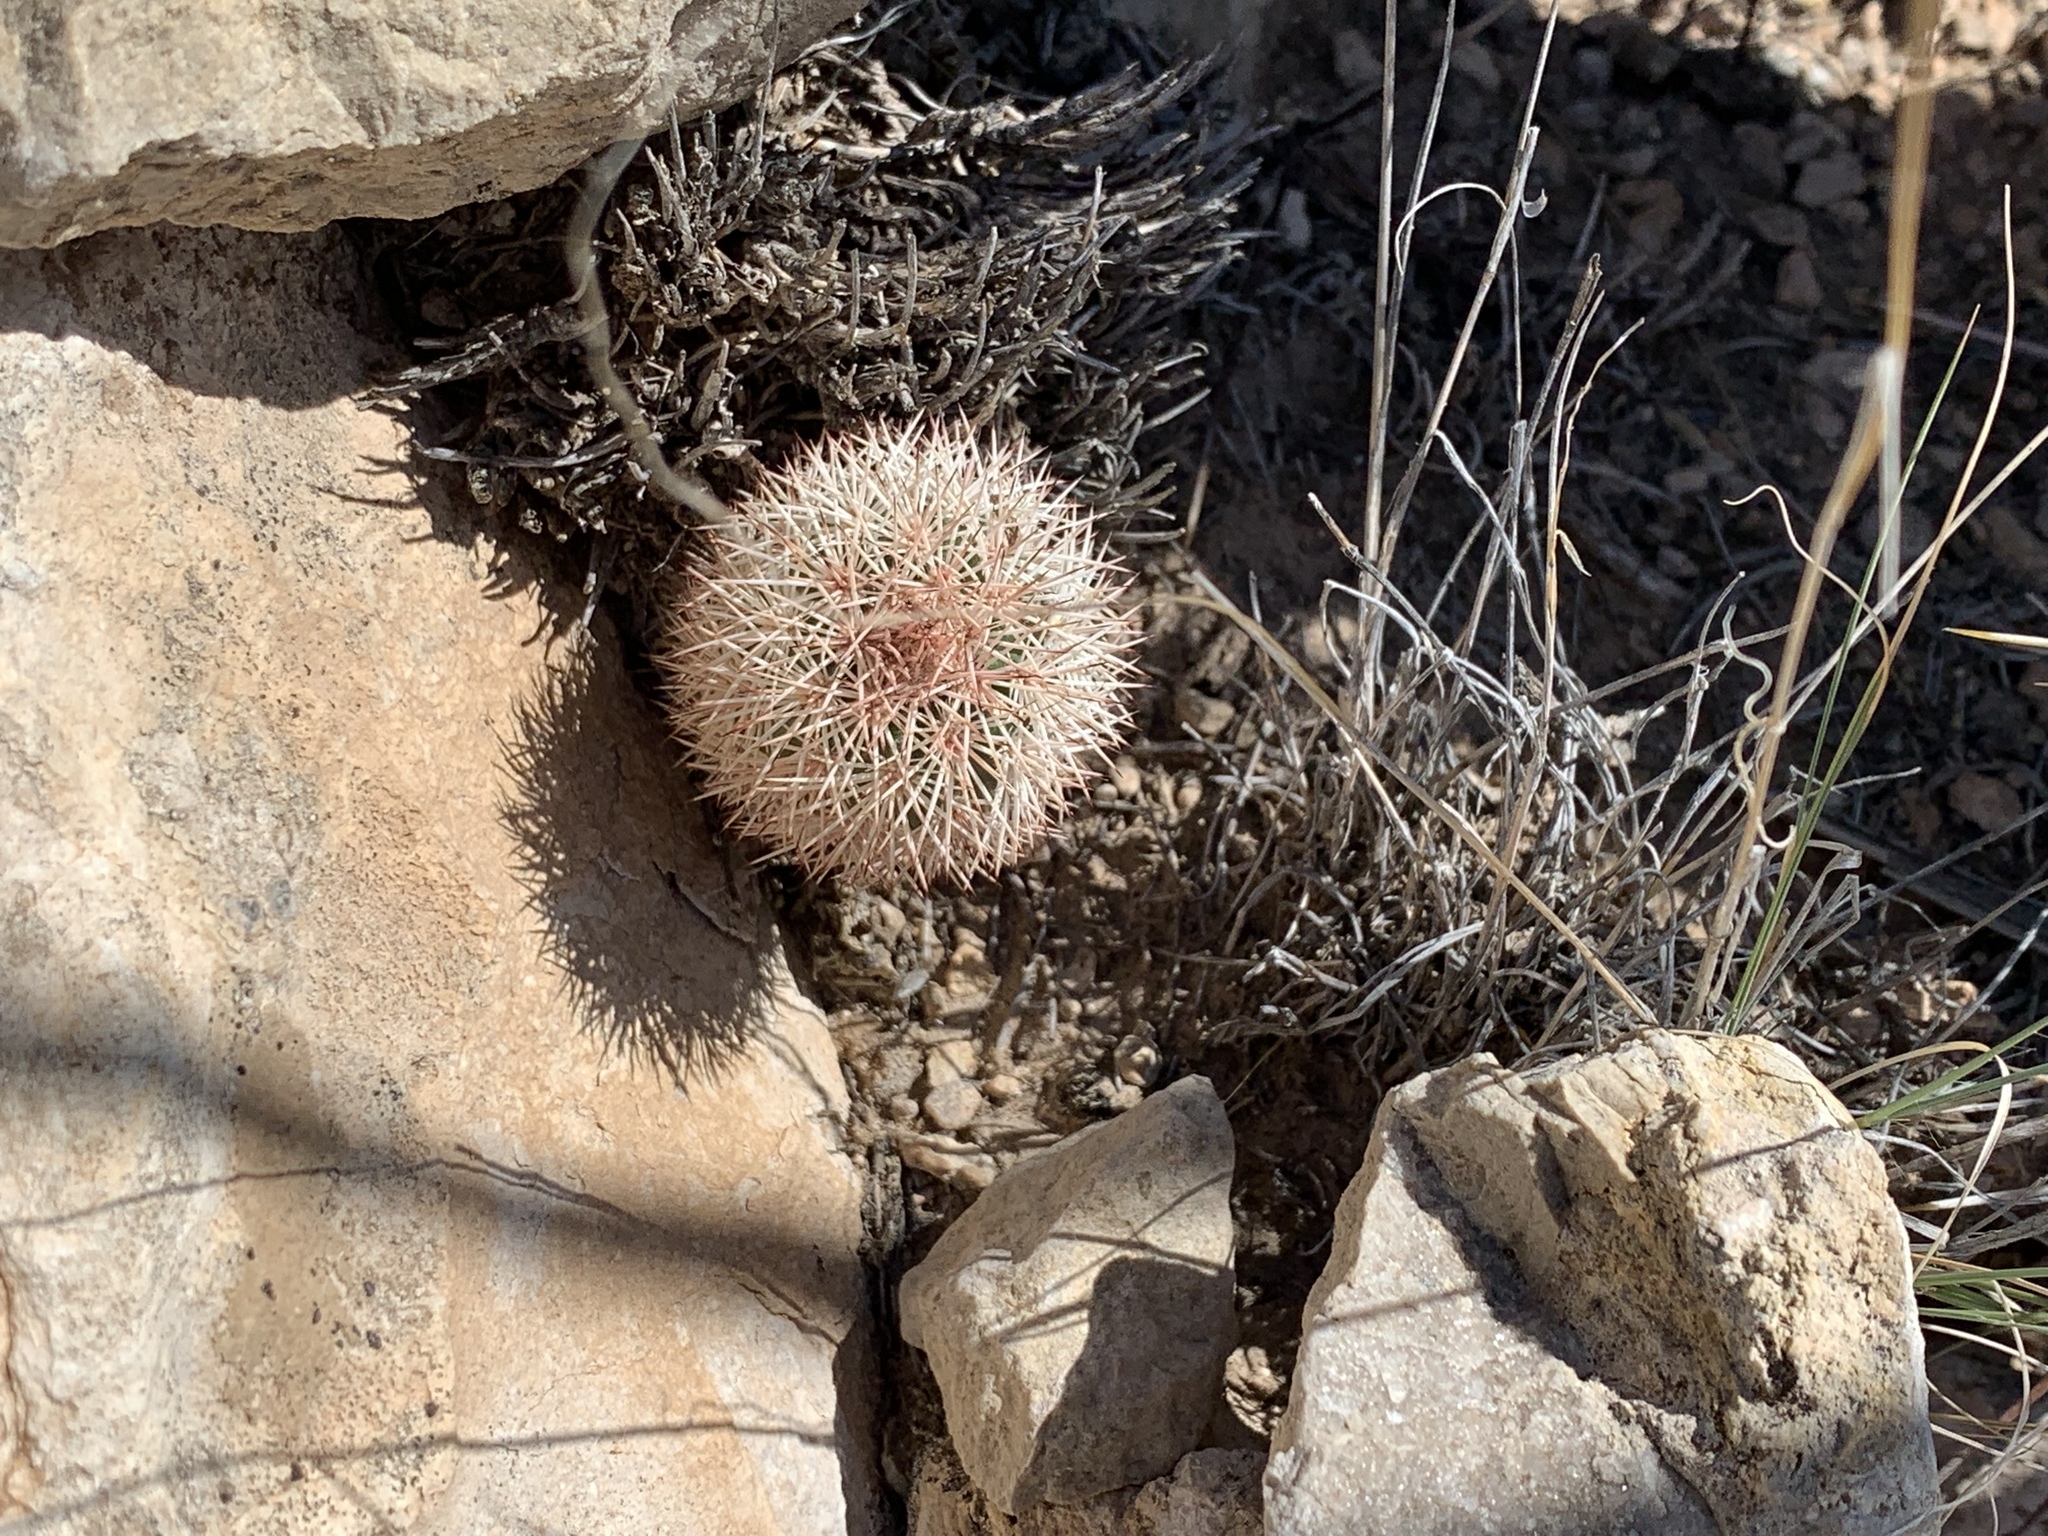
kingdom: Plantae
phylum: Tracheophyta
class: Magnoliopsida
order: Caryophyllales
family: Cactaceae
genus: Echinocereus
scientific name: Echinocereus dasyacanthus
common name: Spiny hedgehog cactus
